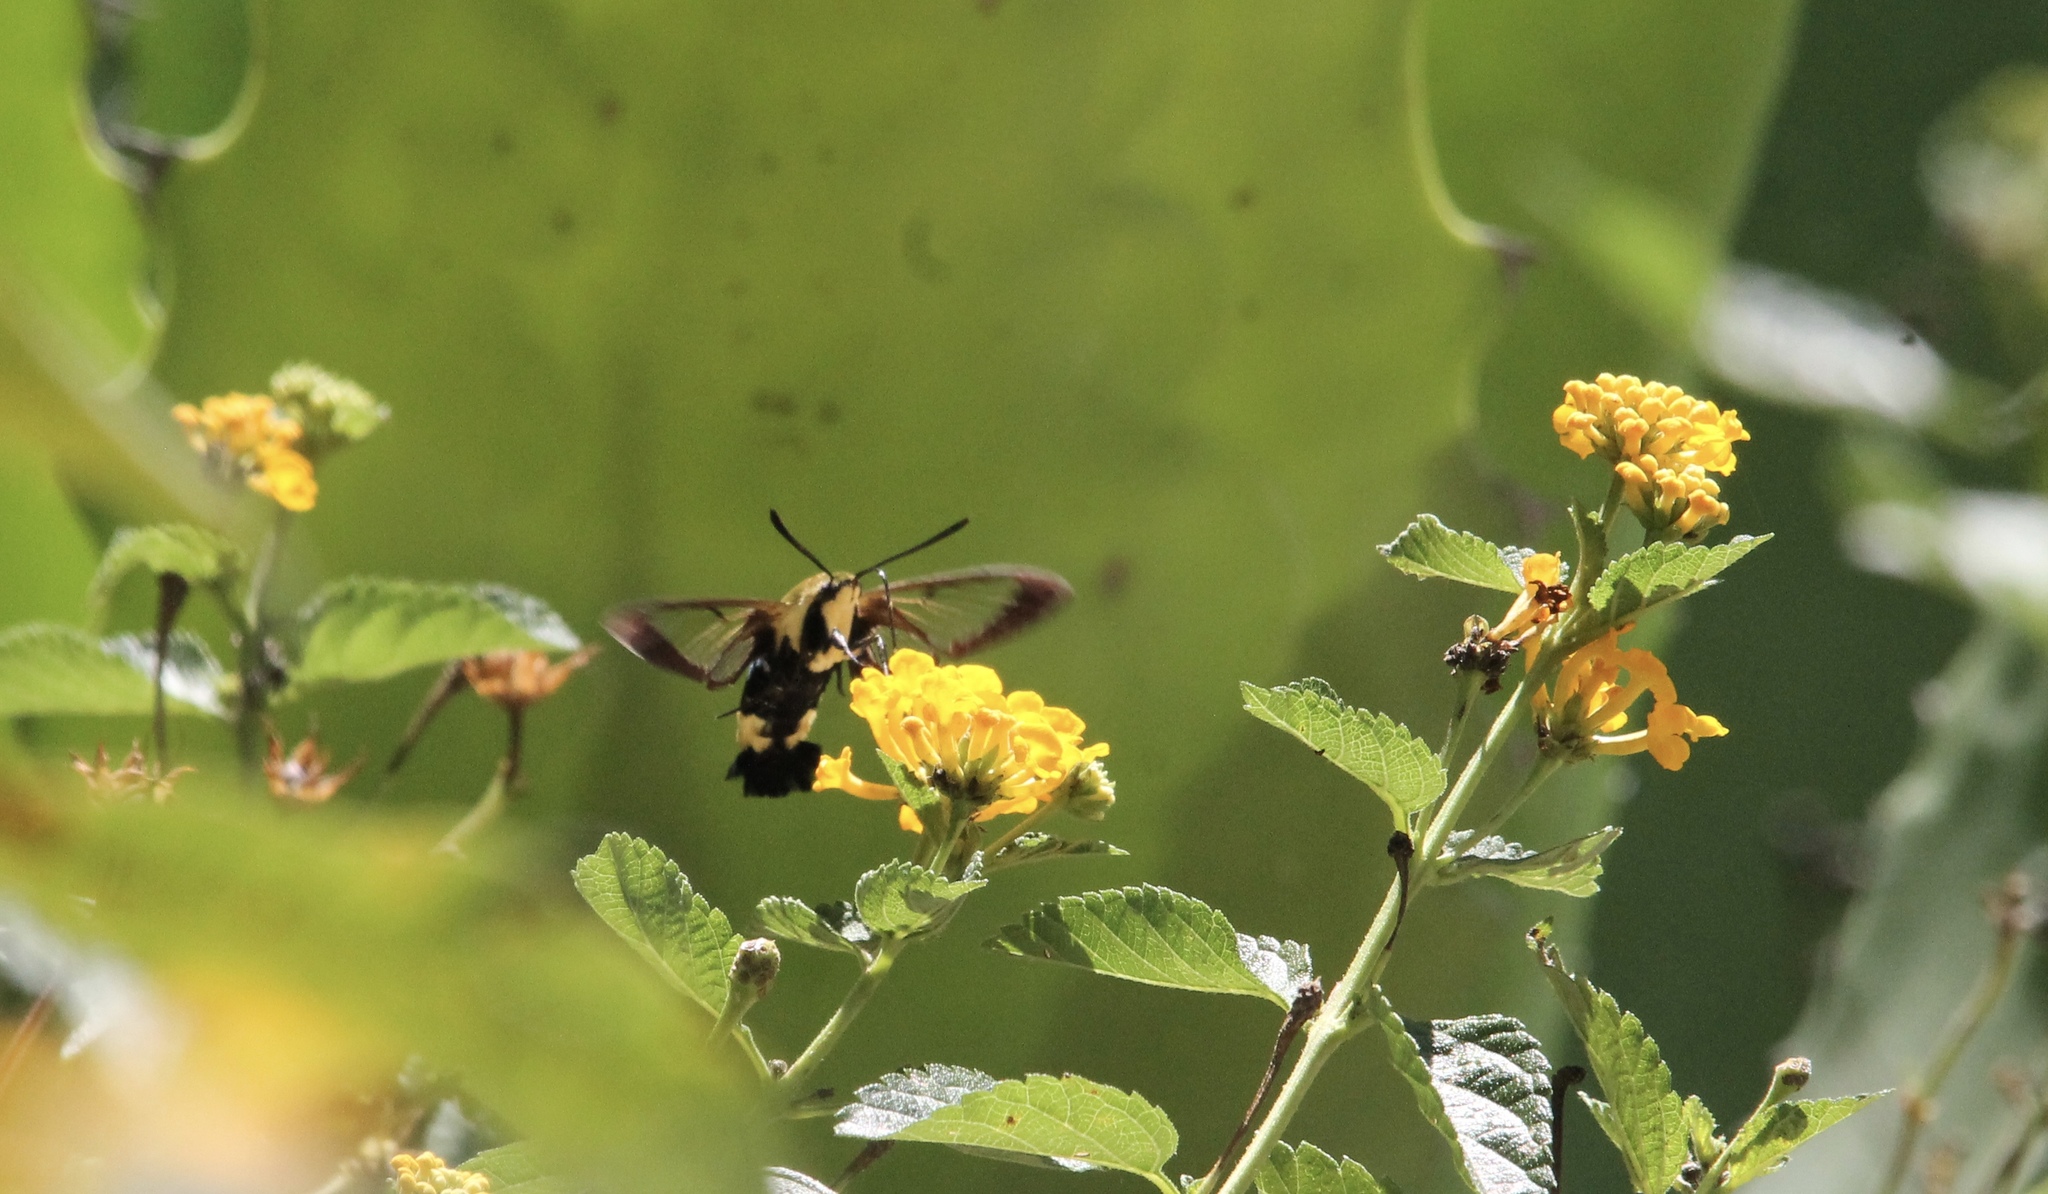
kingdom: Animalia
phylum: Arthropoda
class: Insecta
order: Lepidoptera
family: Sphingidae
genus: Hemaris
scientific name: Hemaris diffinis
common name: Bumblebee moth
